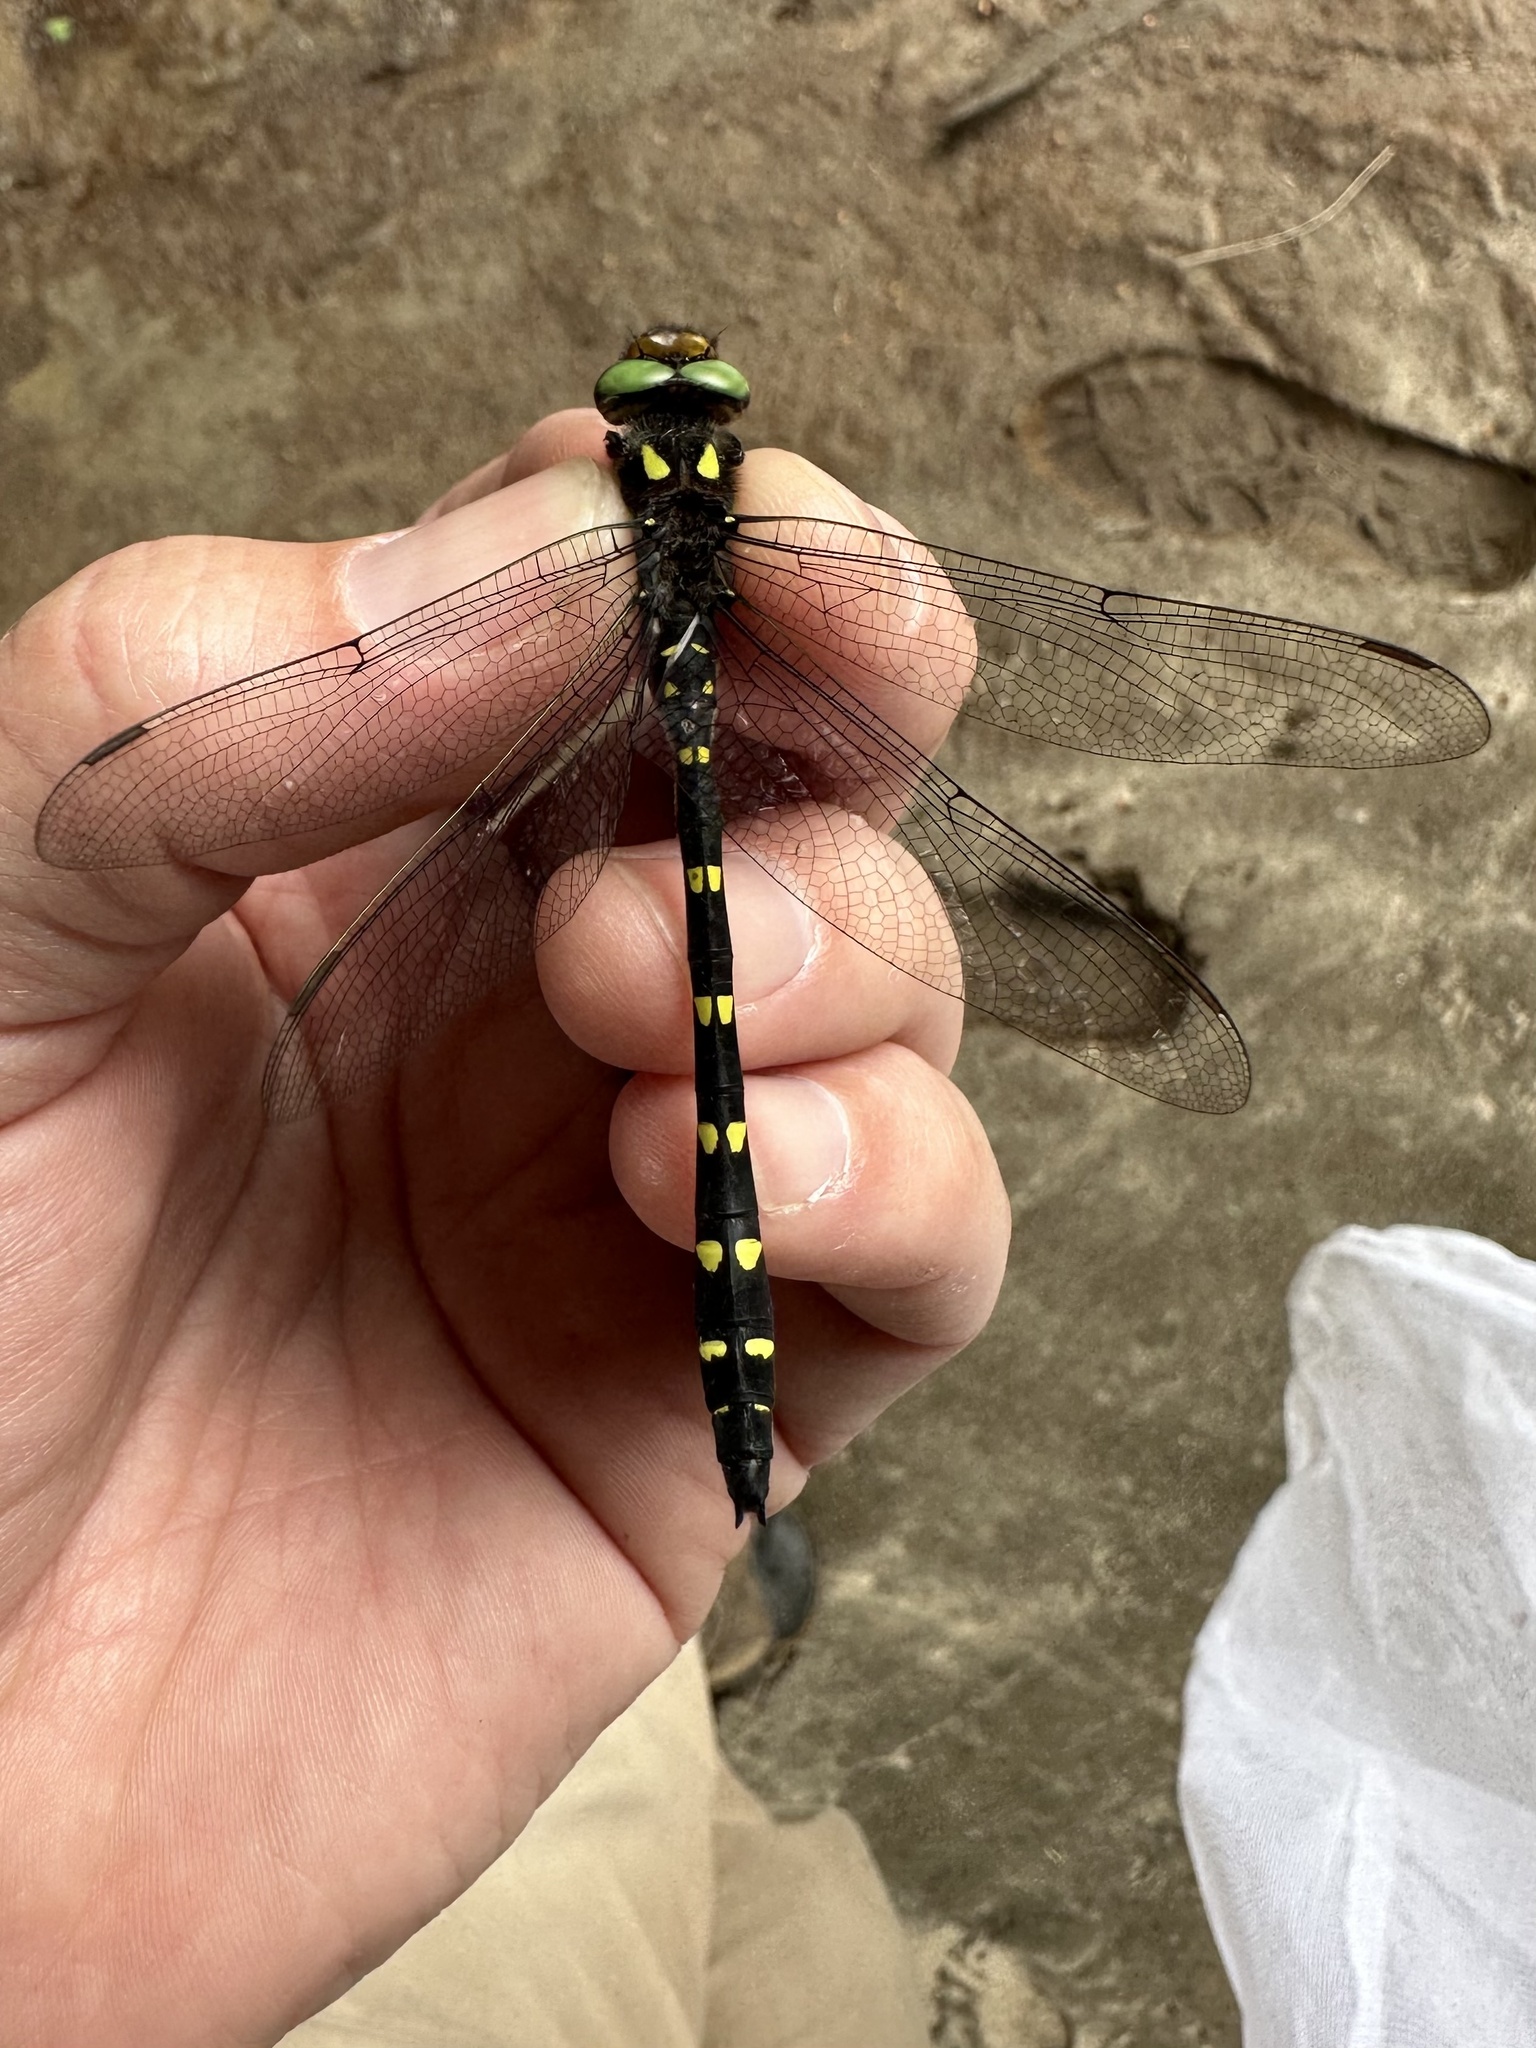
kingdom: Animalia
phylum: Arthropoda
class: Insecta
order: Odonata
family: Cordulegastridae
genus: Cordulegaster
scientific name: Cordulegaster maculata
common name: Twin-spotted spiketail
